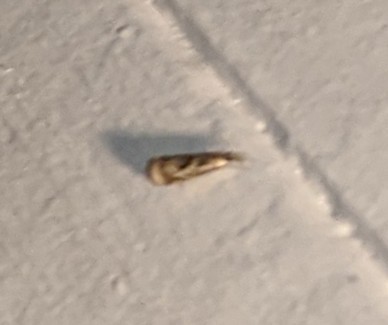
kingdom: Animalia
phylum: Arthropoda
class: Insecta
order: Lepidoptera
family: Crambidae
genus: Microcrambus
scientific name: Microcrambus elegans
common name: Elegant grass-veneer
